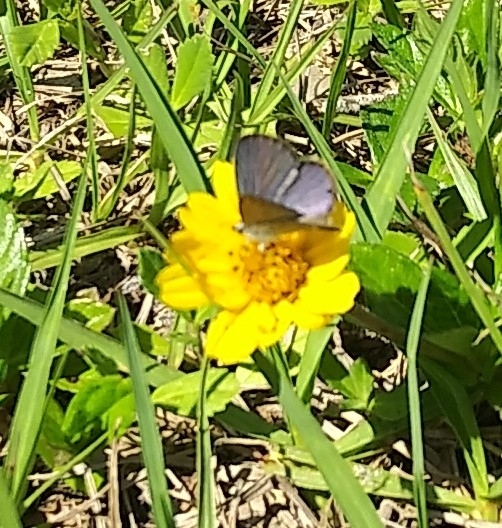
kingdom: Animalia
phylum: Arthropoda
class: Insecta
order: Lepidoptera
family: Lycaenidae
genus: Hemiargus
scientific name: Hemiargus ceraunus
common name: Ceraunus blue
